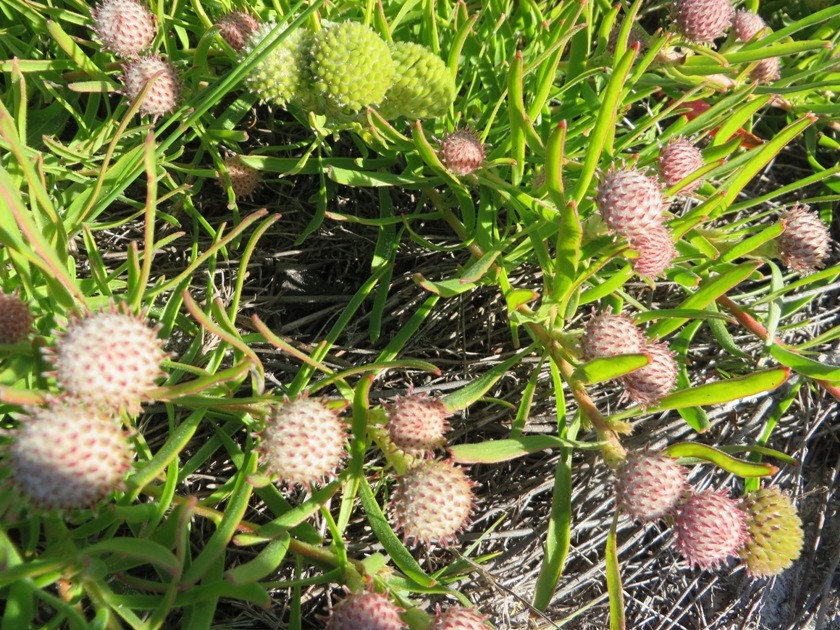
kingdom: Plantae
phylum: Tracheophyta
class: Magnoliopsida
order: Proteales
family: Proteaceae
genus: Leucospermum
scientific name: Leucospermum pedunculatum
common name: White-trailing pincushion
